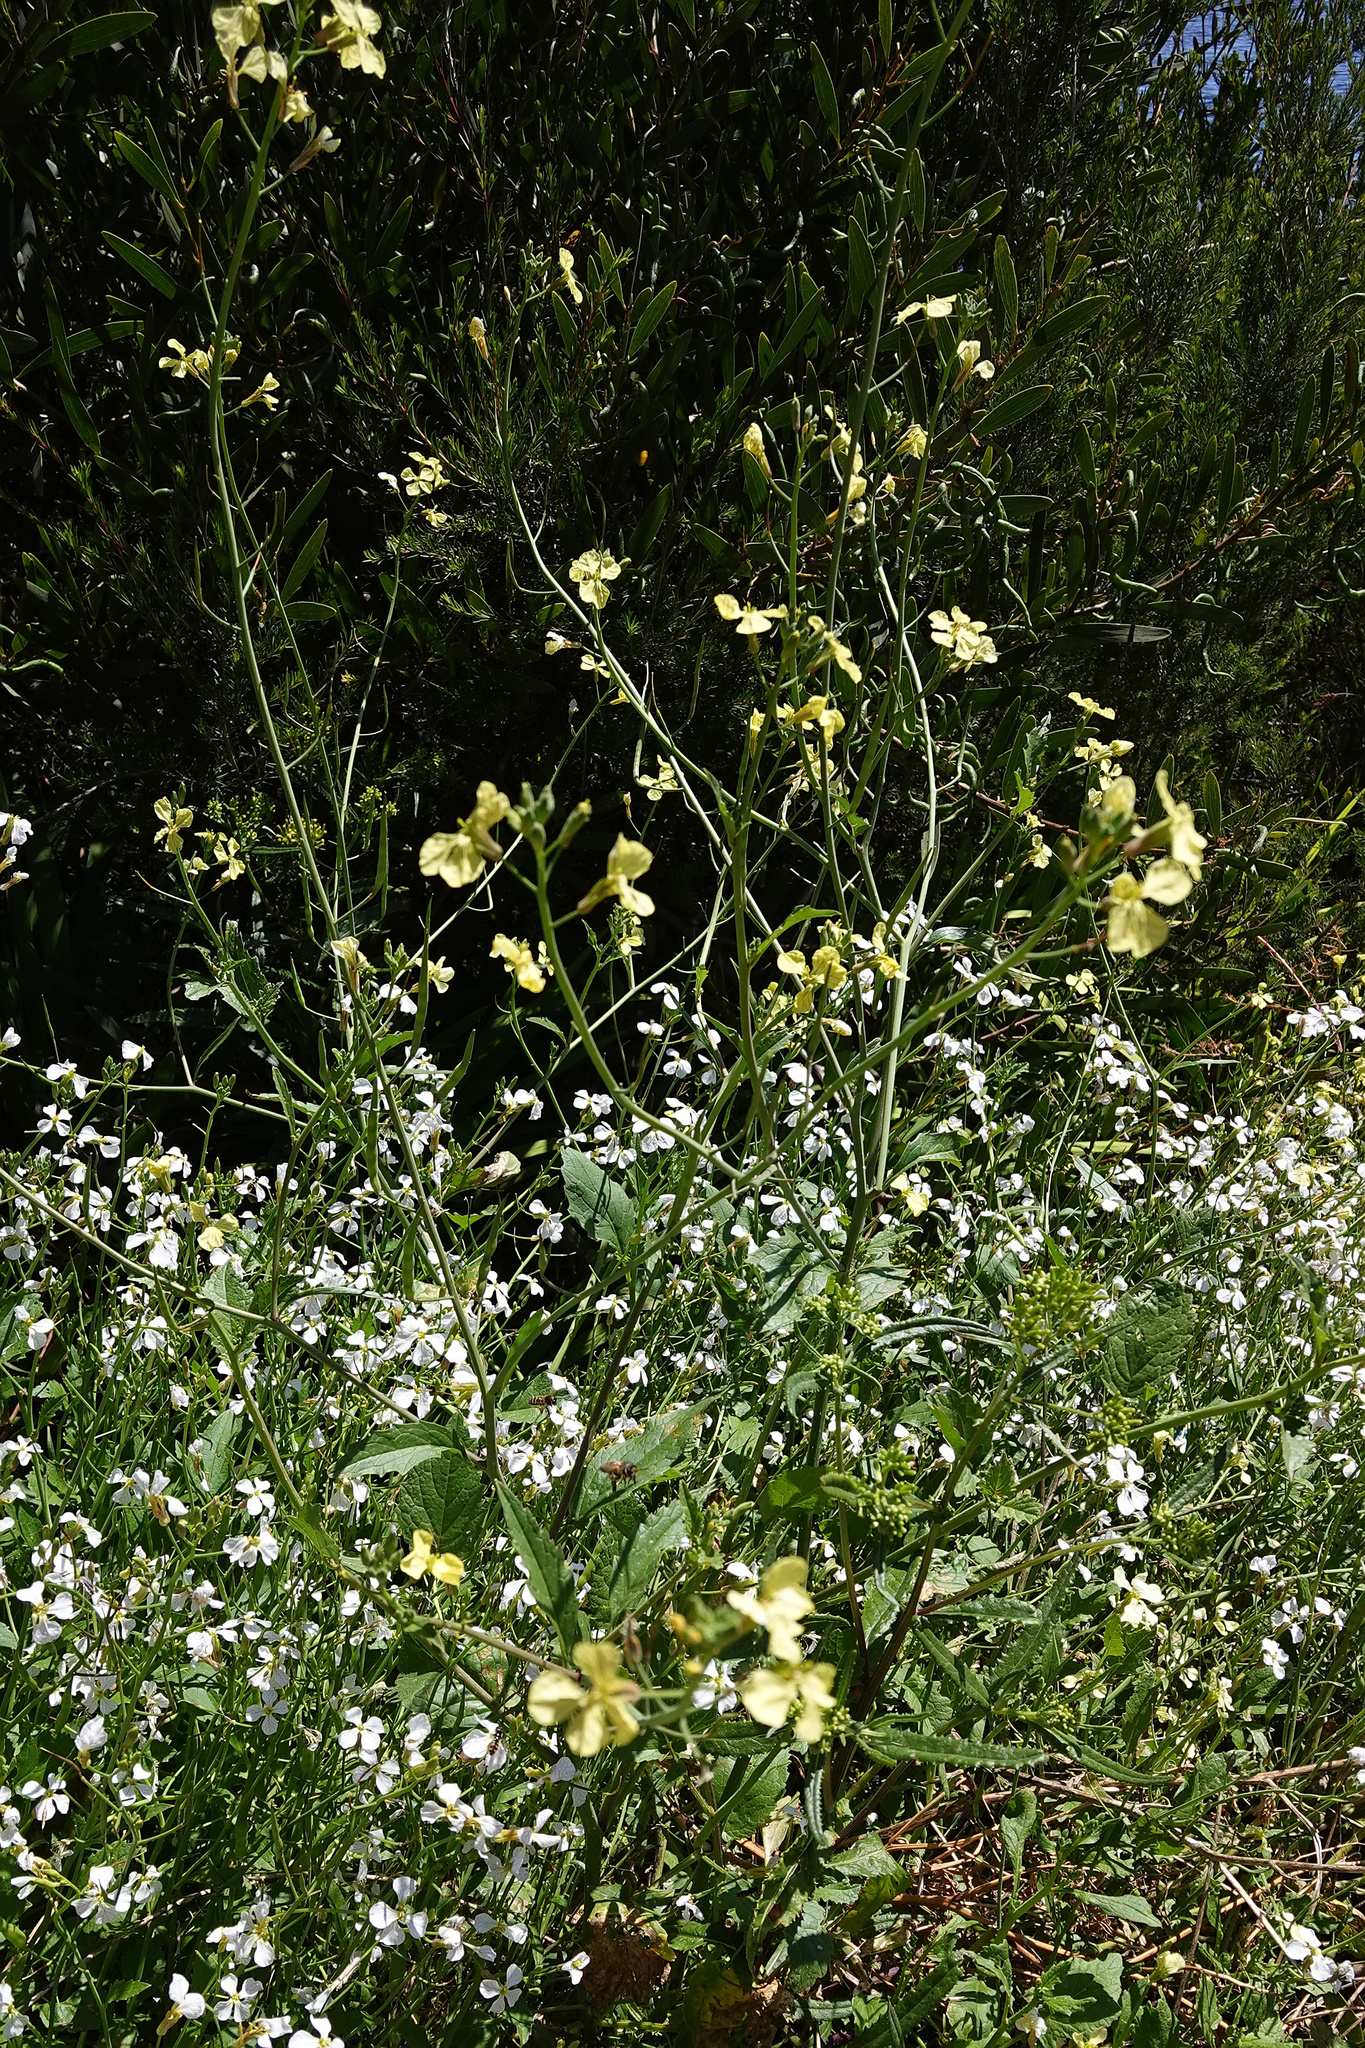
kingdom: Plantae
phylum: Tracheophyta
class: Magnoliopsida
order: Brassicales
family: Brassicaceae
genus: Raphanus
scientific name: Raphanus raphanistrum
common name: Wild radish
